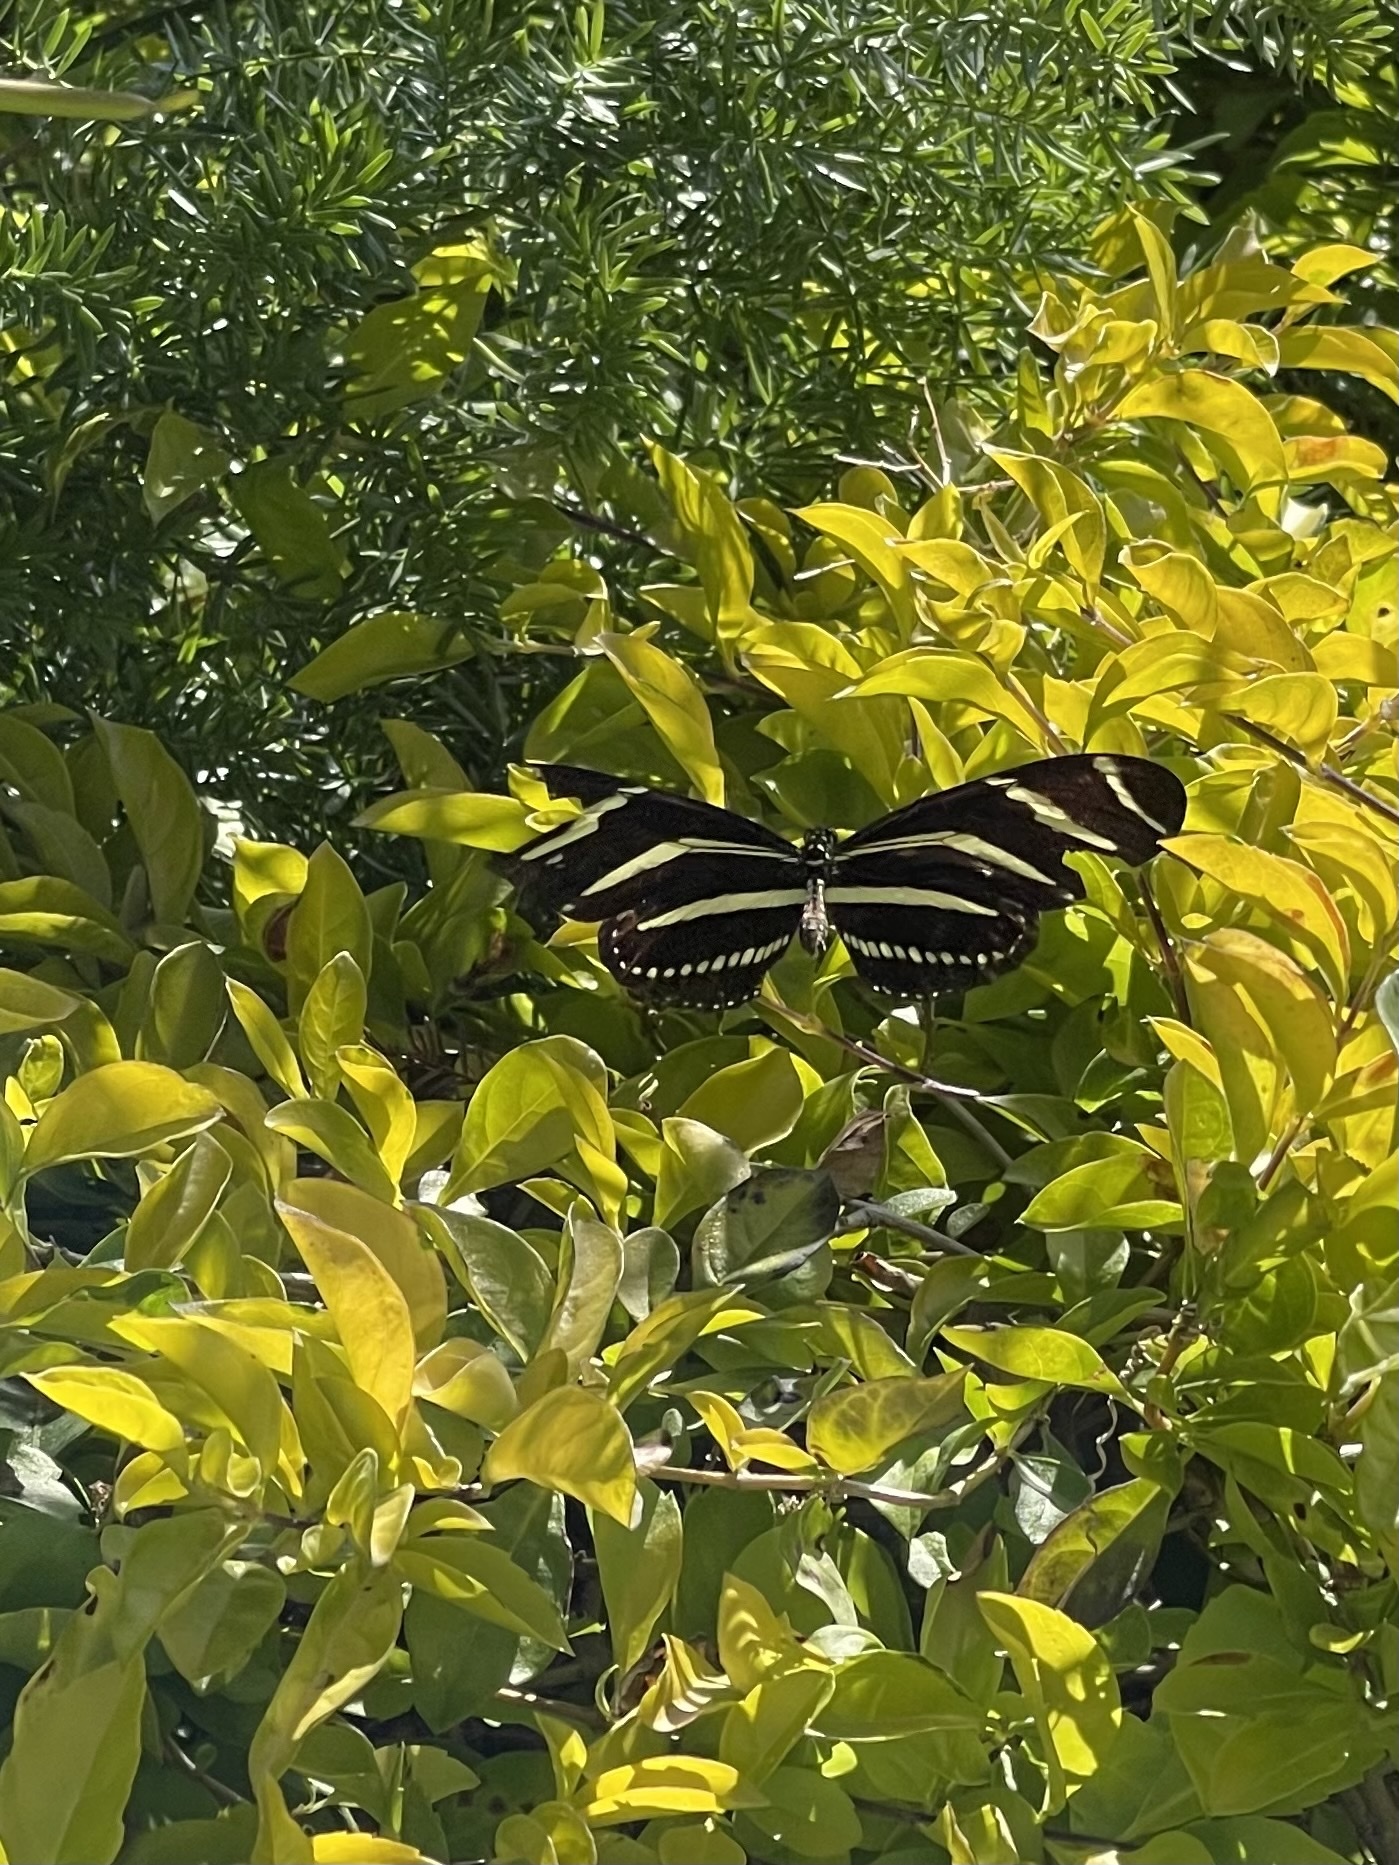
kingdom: Animalia
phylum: Arthropoda
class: Insecta
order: Lepidoptera
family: Nymphalidae
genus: Heliconius
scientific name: Heliconius charithonia
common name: Zebra long wing
